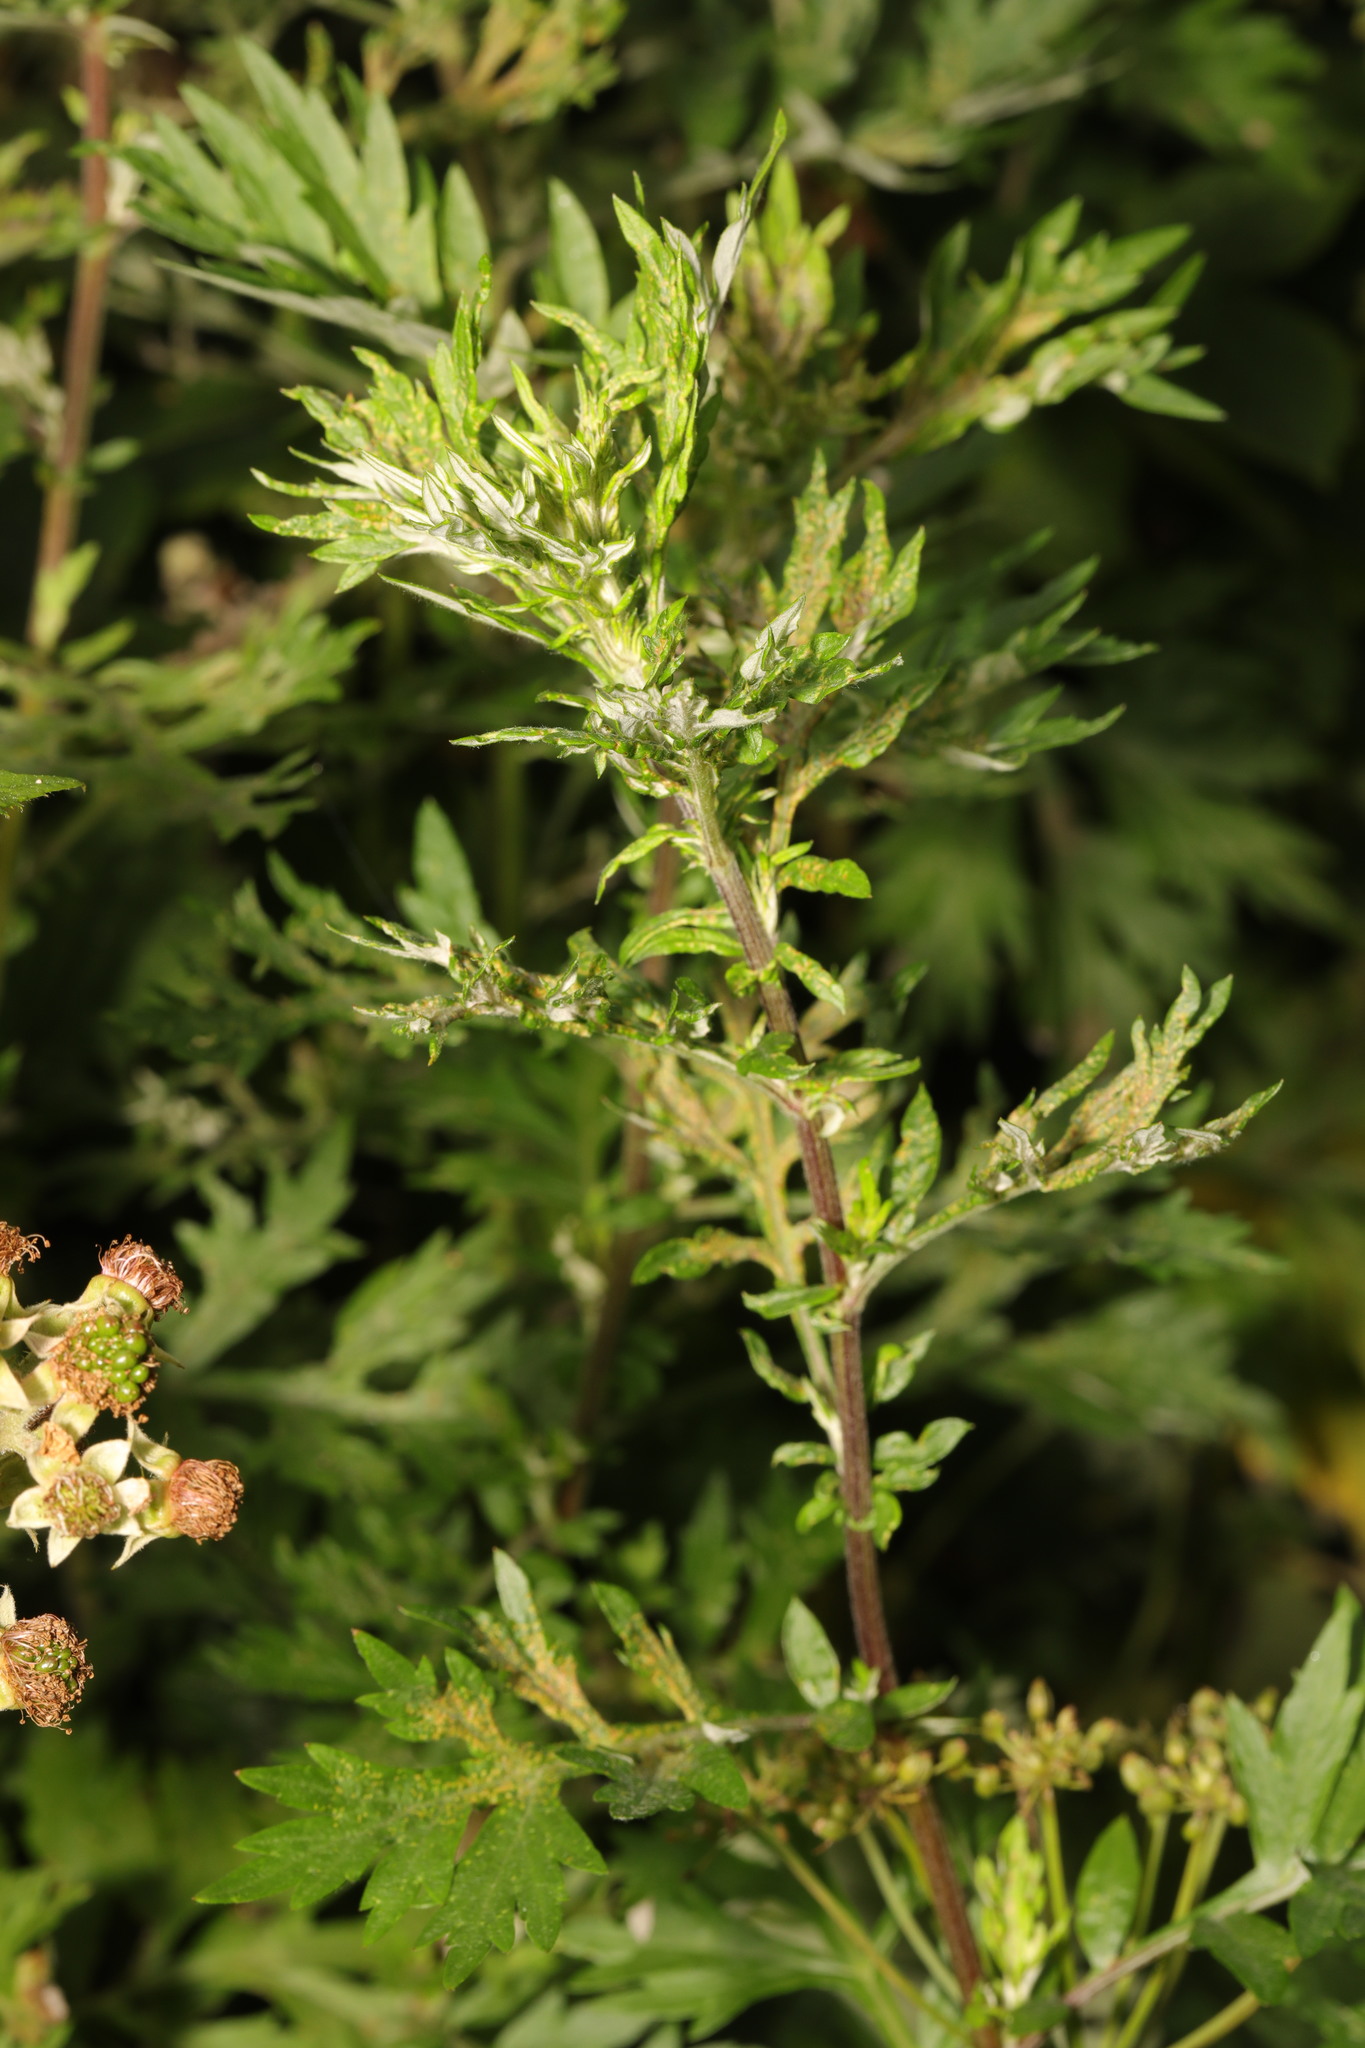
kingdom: Plantae
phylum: Tracheophyta
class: Magnoliopsida
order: Asterales
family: Asteraceae
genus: Artemisia
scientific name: Artemisia vulgaris
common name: Mugwort
